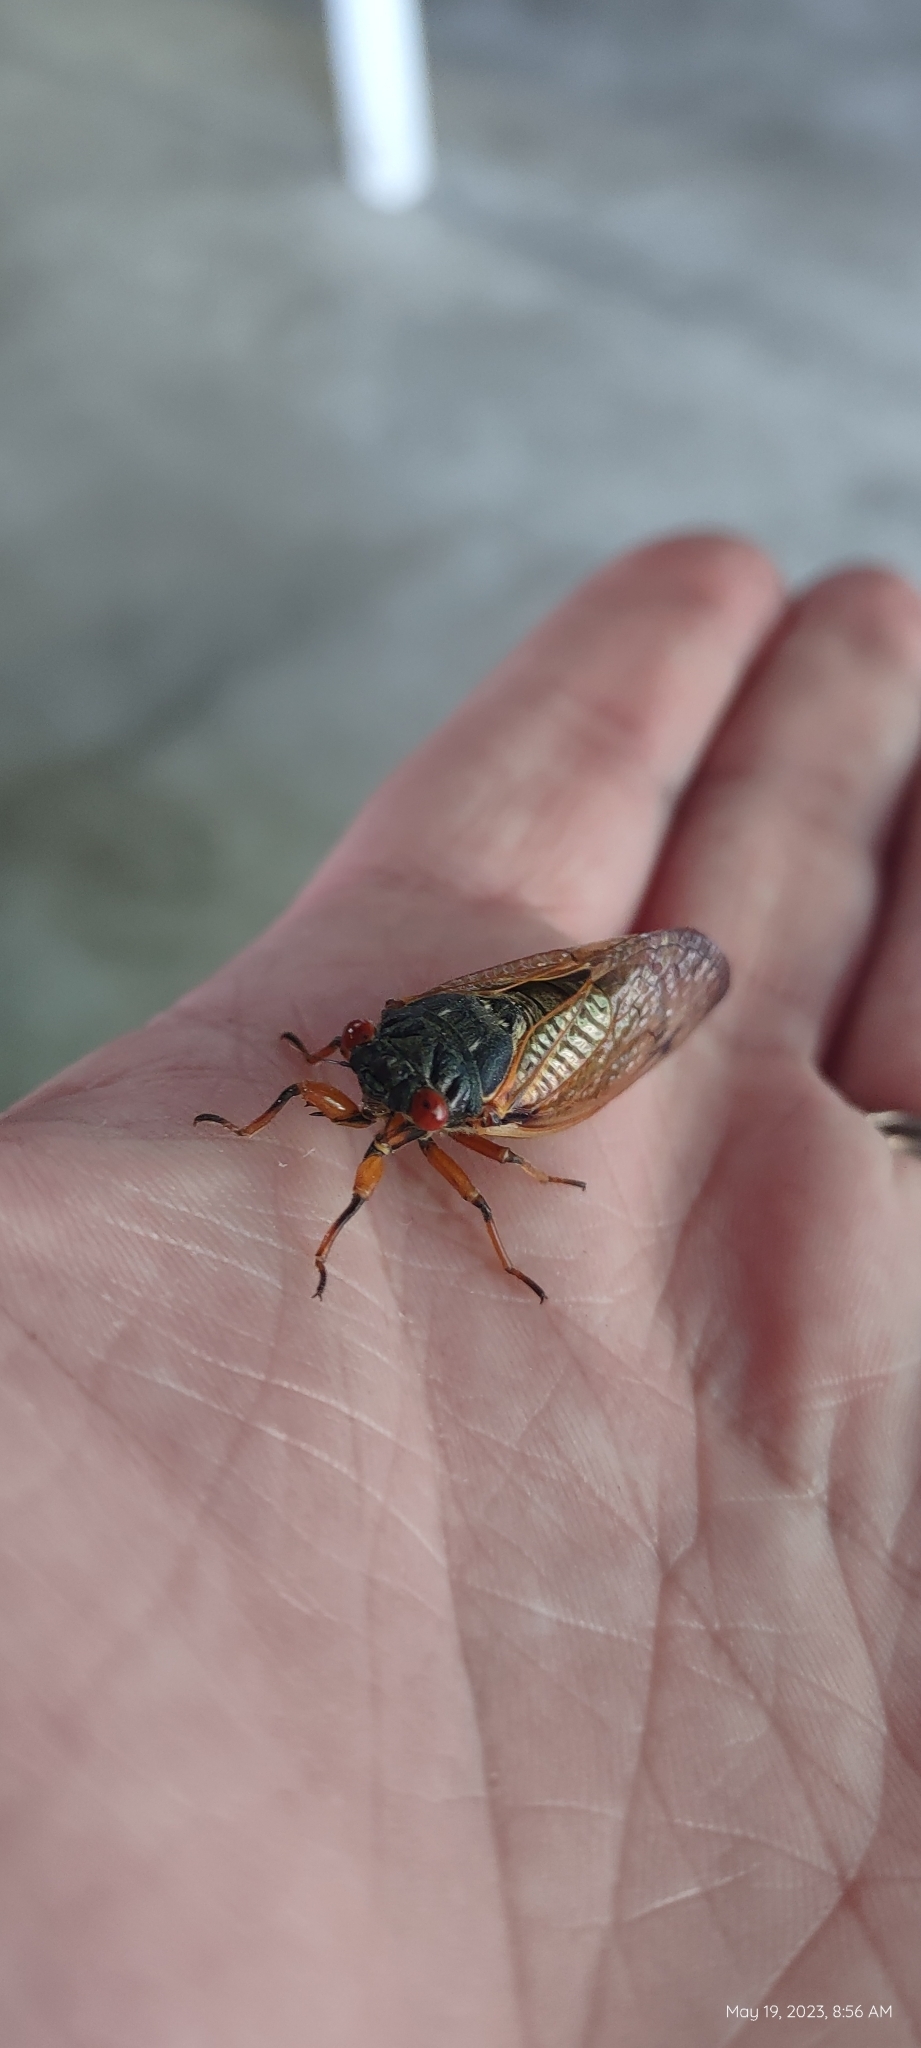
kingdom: Animalia
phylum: Arthropoda
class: Insecta
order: Hemiptera
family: Cicadidae
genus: Magicicada
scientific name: Magicicada
